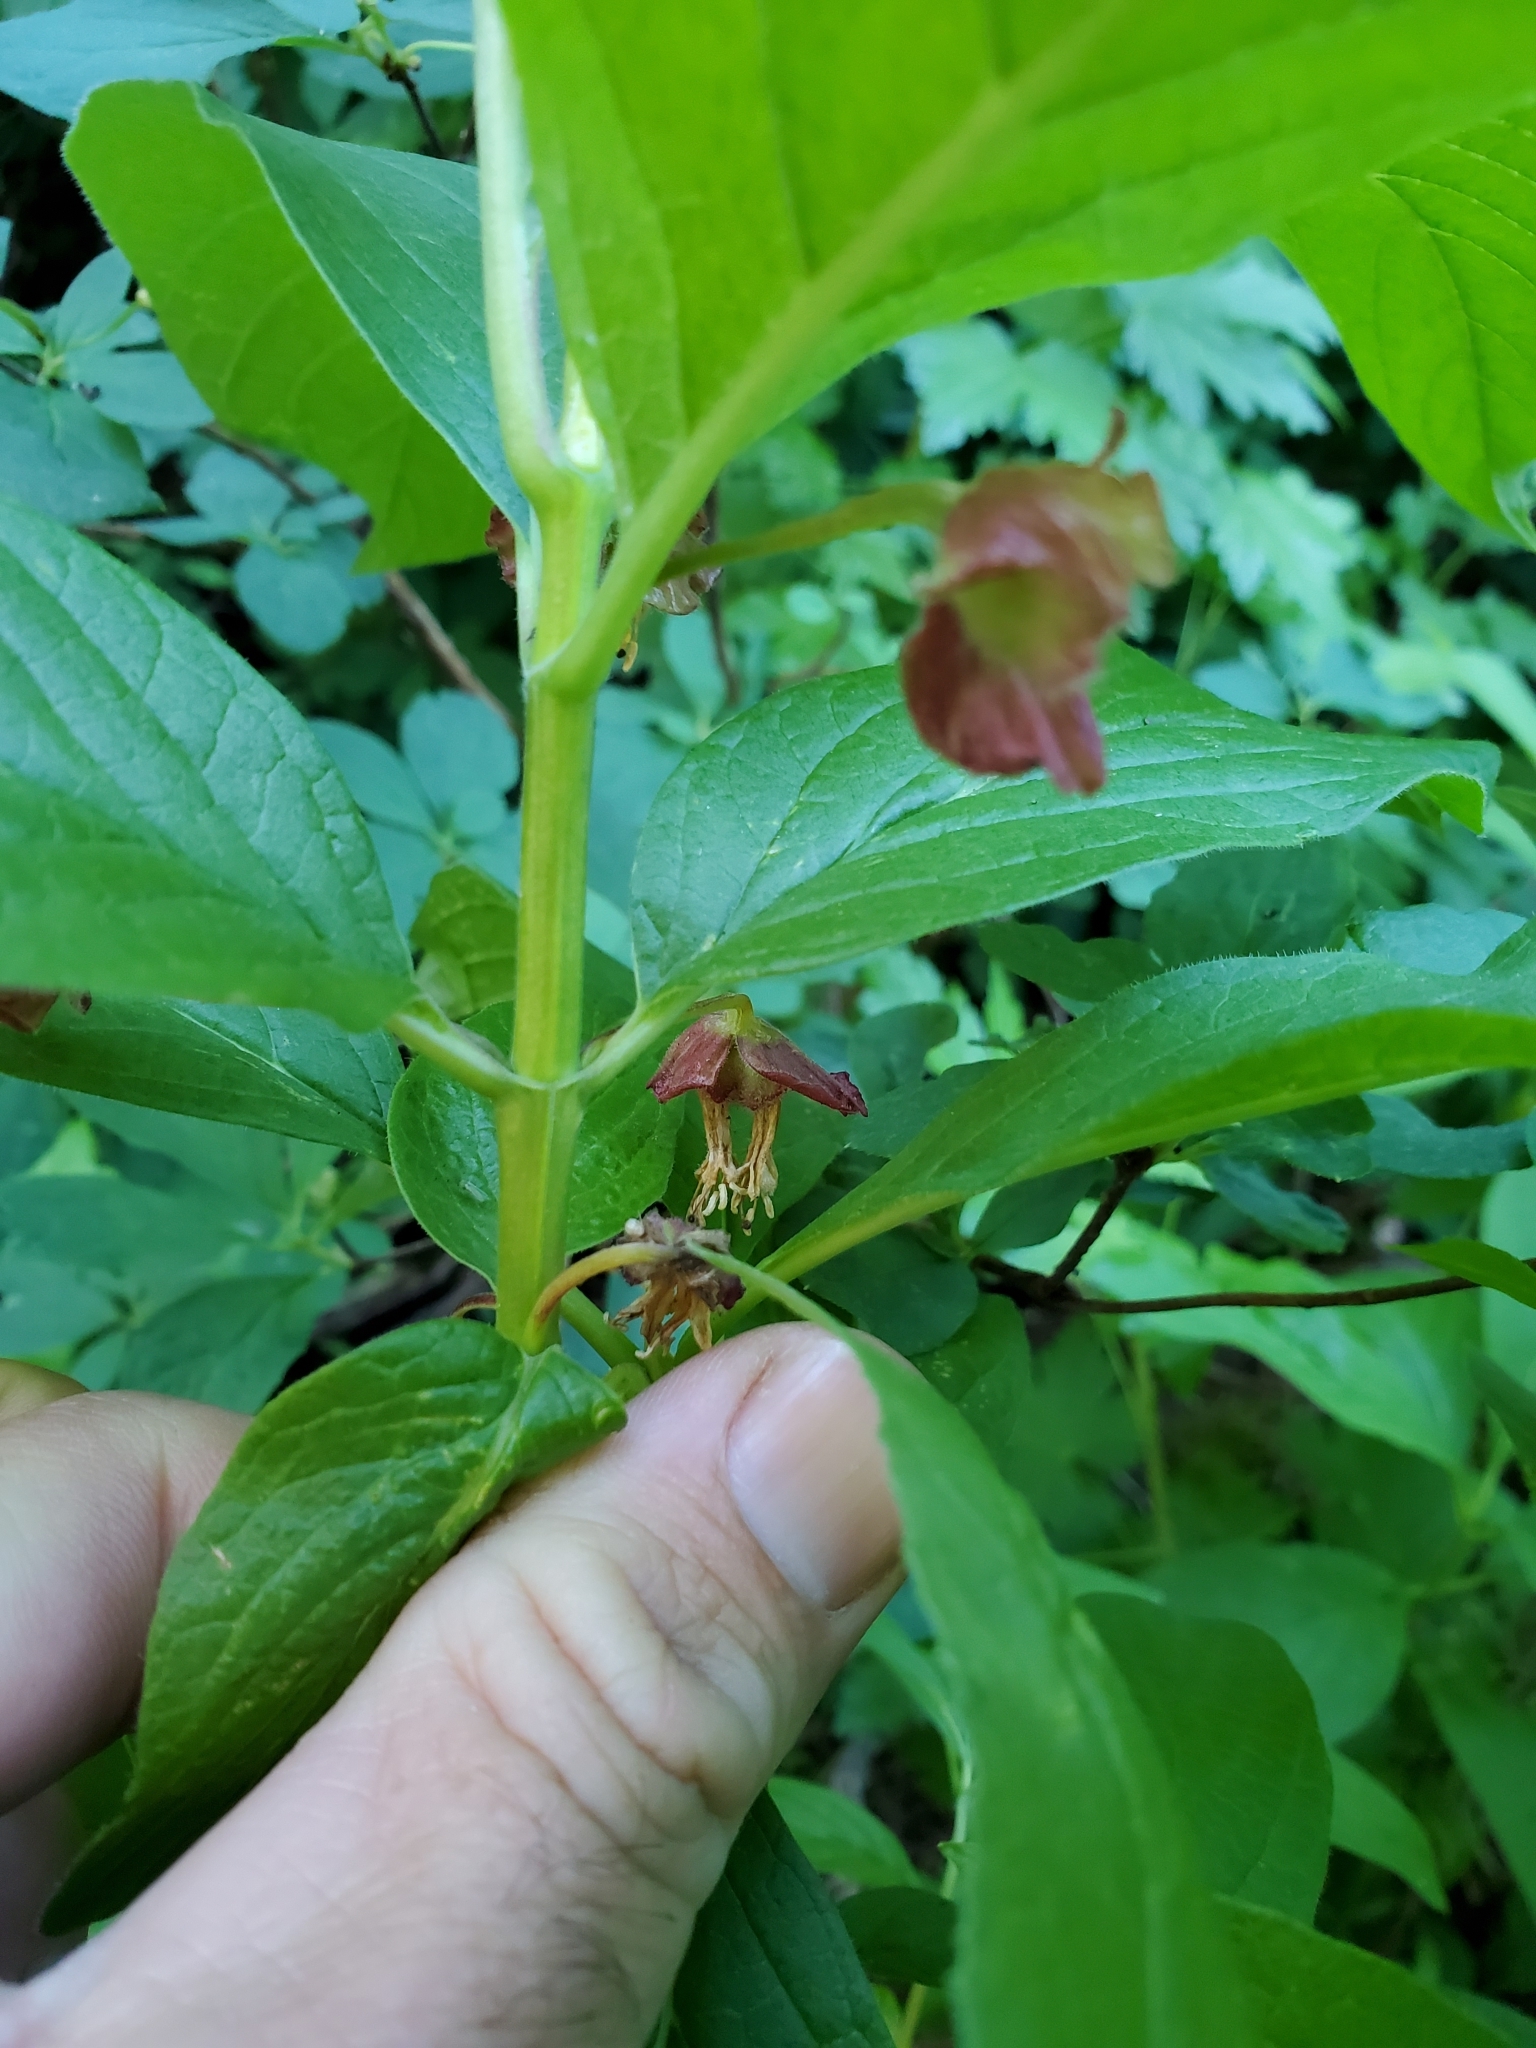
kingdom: Plantae
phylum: Tracheophyta
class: Magnoliopsida
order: Dipsacales
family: Caprifoliaceae
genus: Lonicera
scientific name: Lonicera involucrata
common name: Californian honeysuckle
